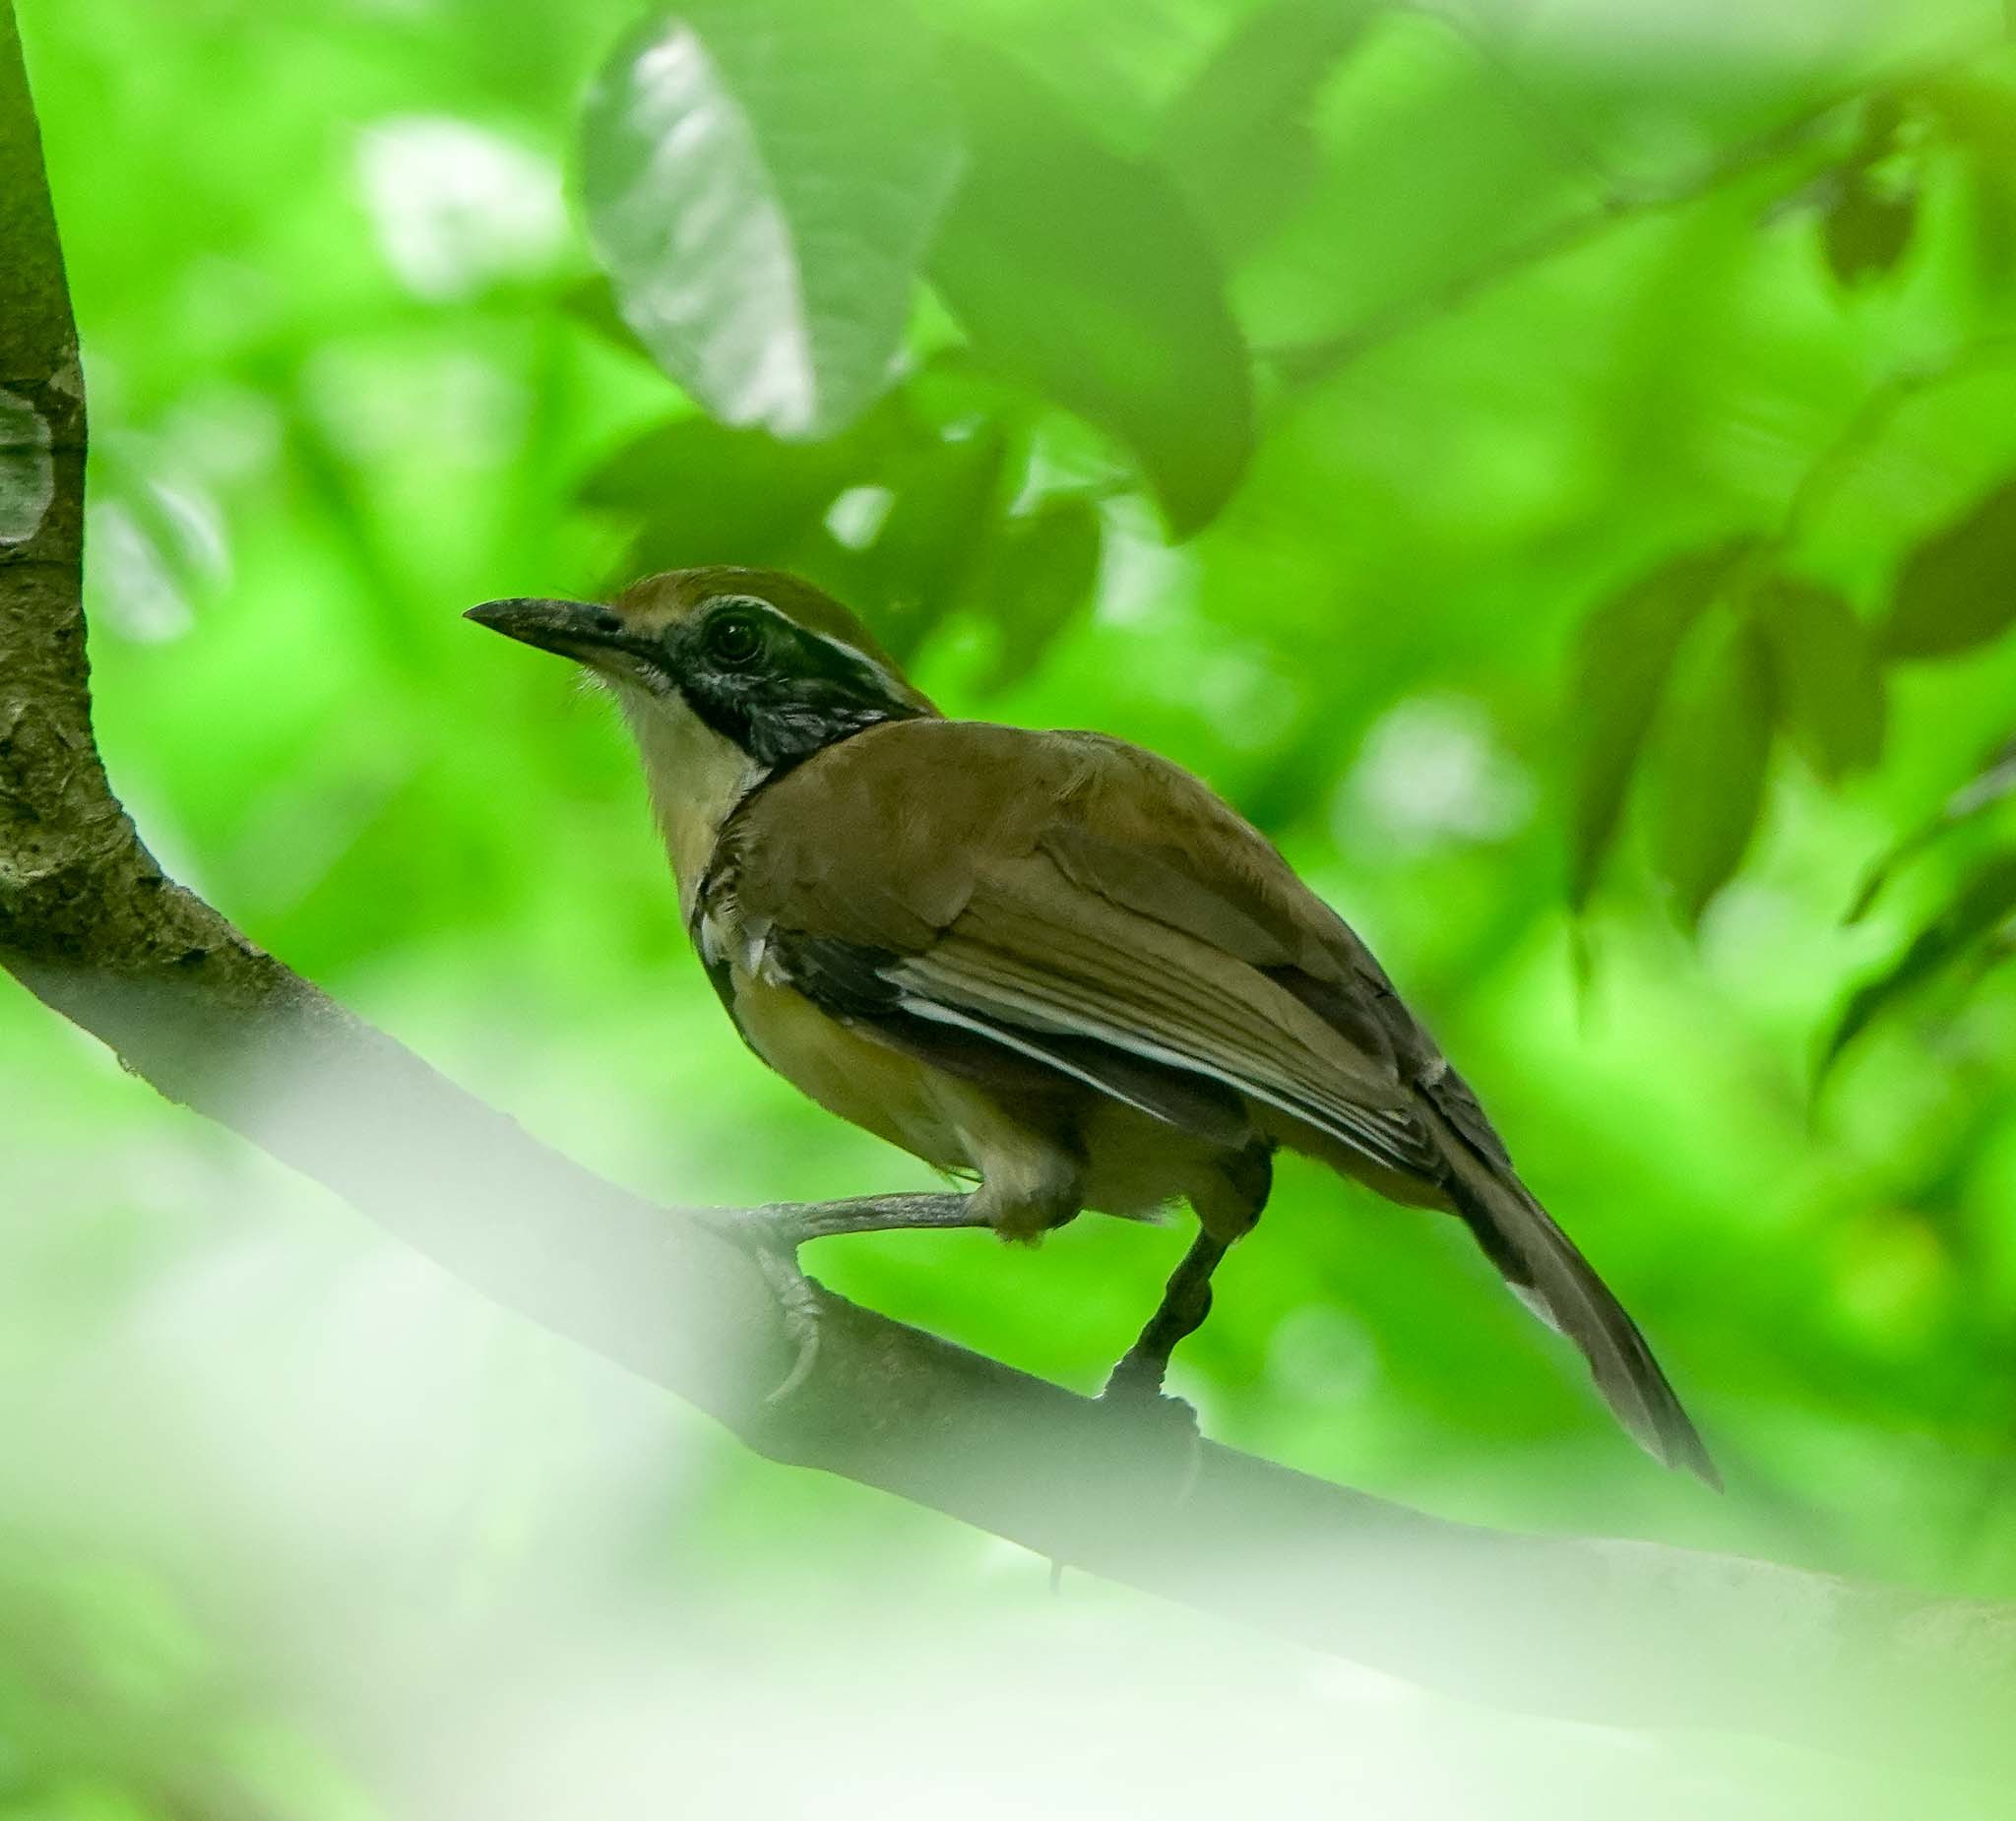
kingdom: Animalia
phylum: Chordata
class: Aves
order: Passeriformes
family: Leiothrichidae
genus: Garrulax
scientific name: Garrulax pectoralis
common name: Greater necklaced laughingthrush
